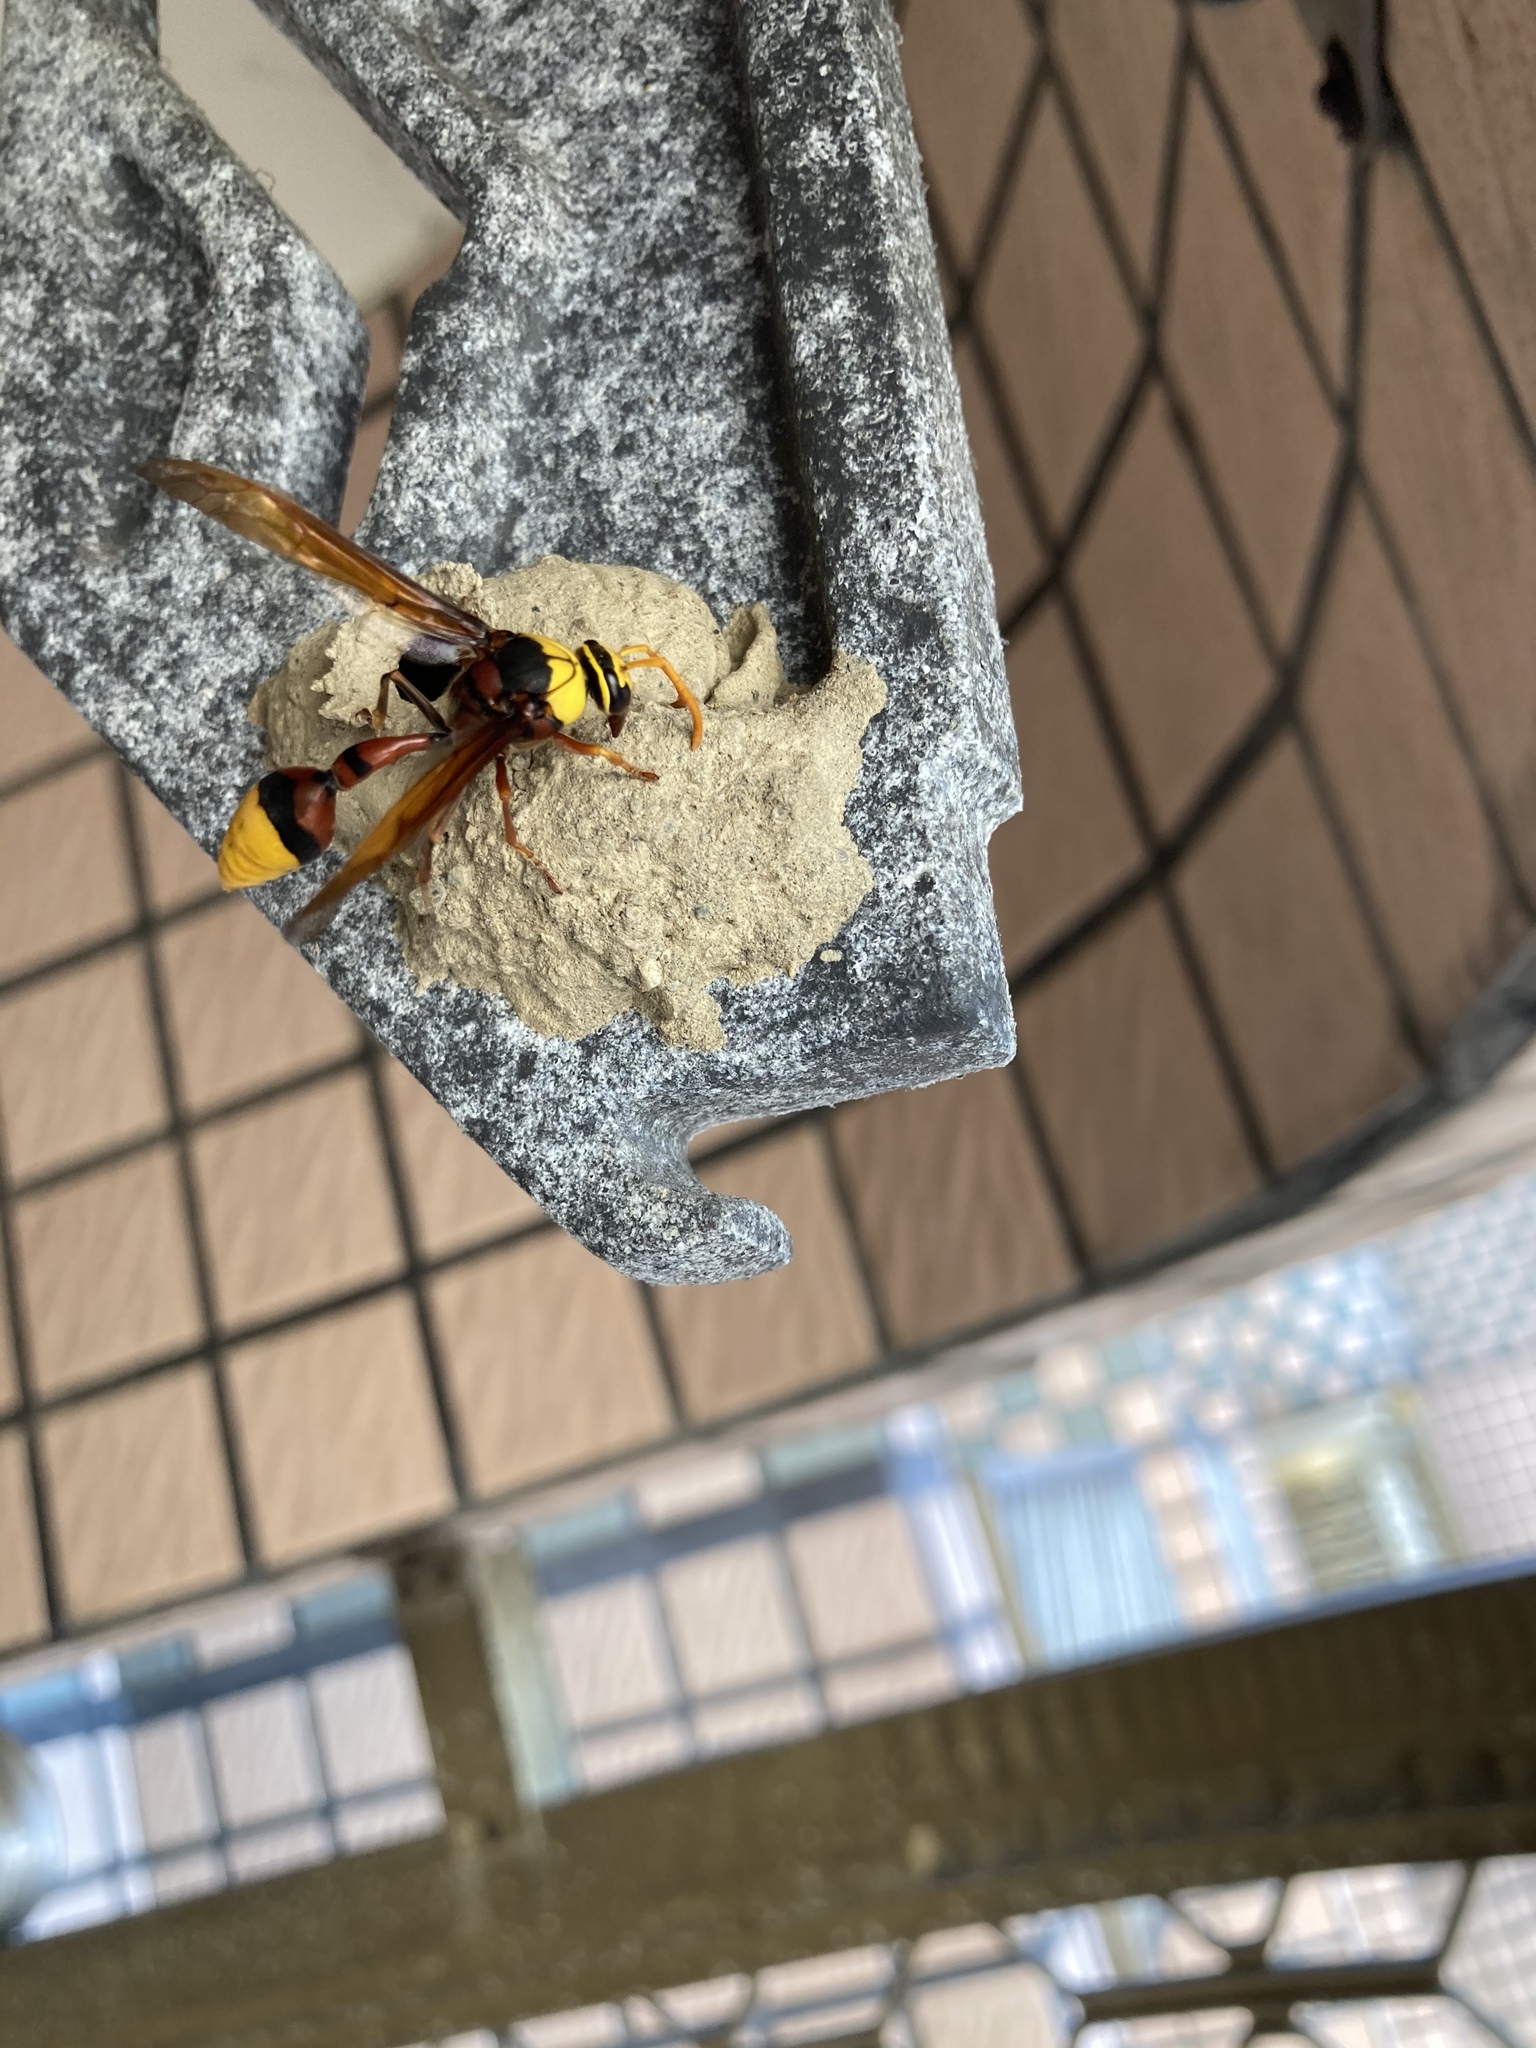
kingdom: Animalia
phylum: Arthropoda
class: Insecta
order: Hymenoptera
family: Eumenidae
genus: Delta
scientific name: Delta pyriforme
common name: Wasp
